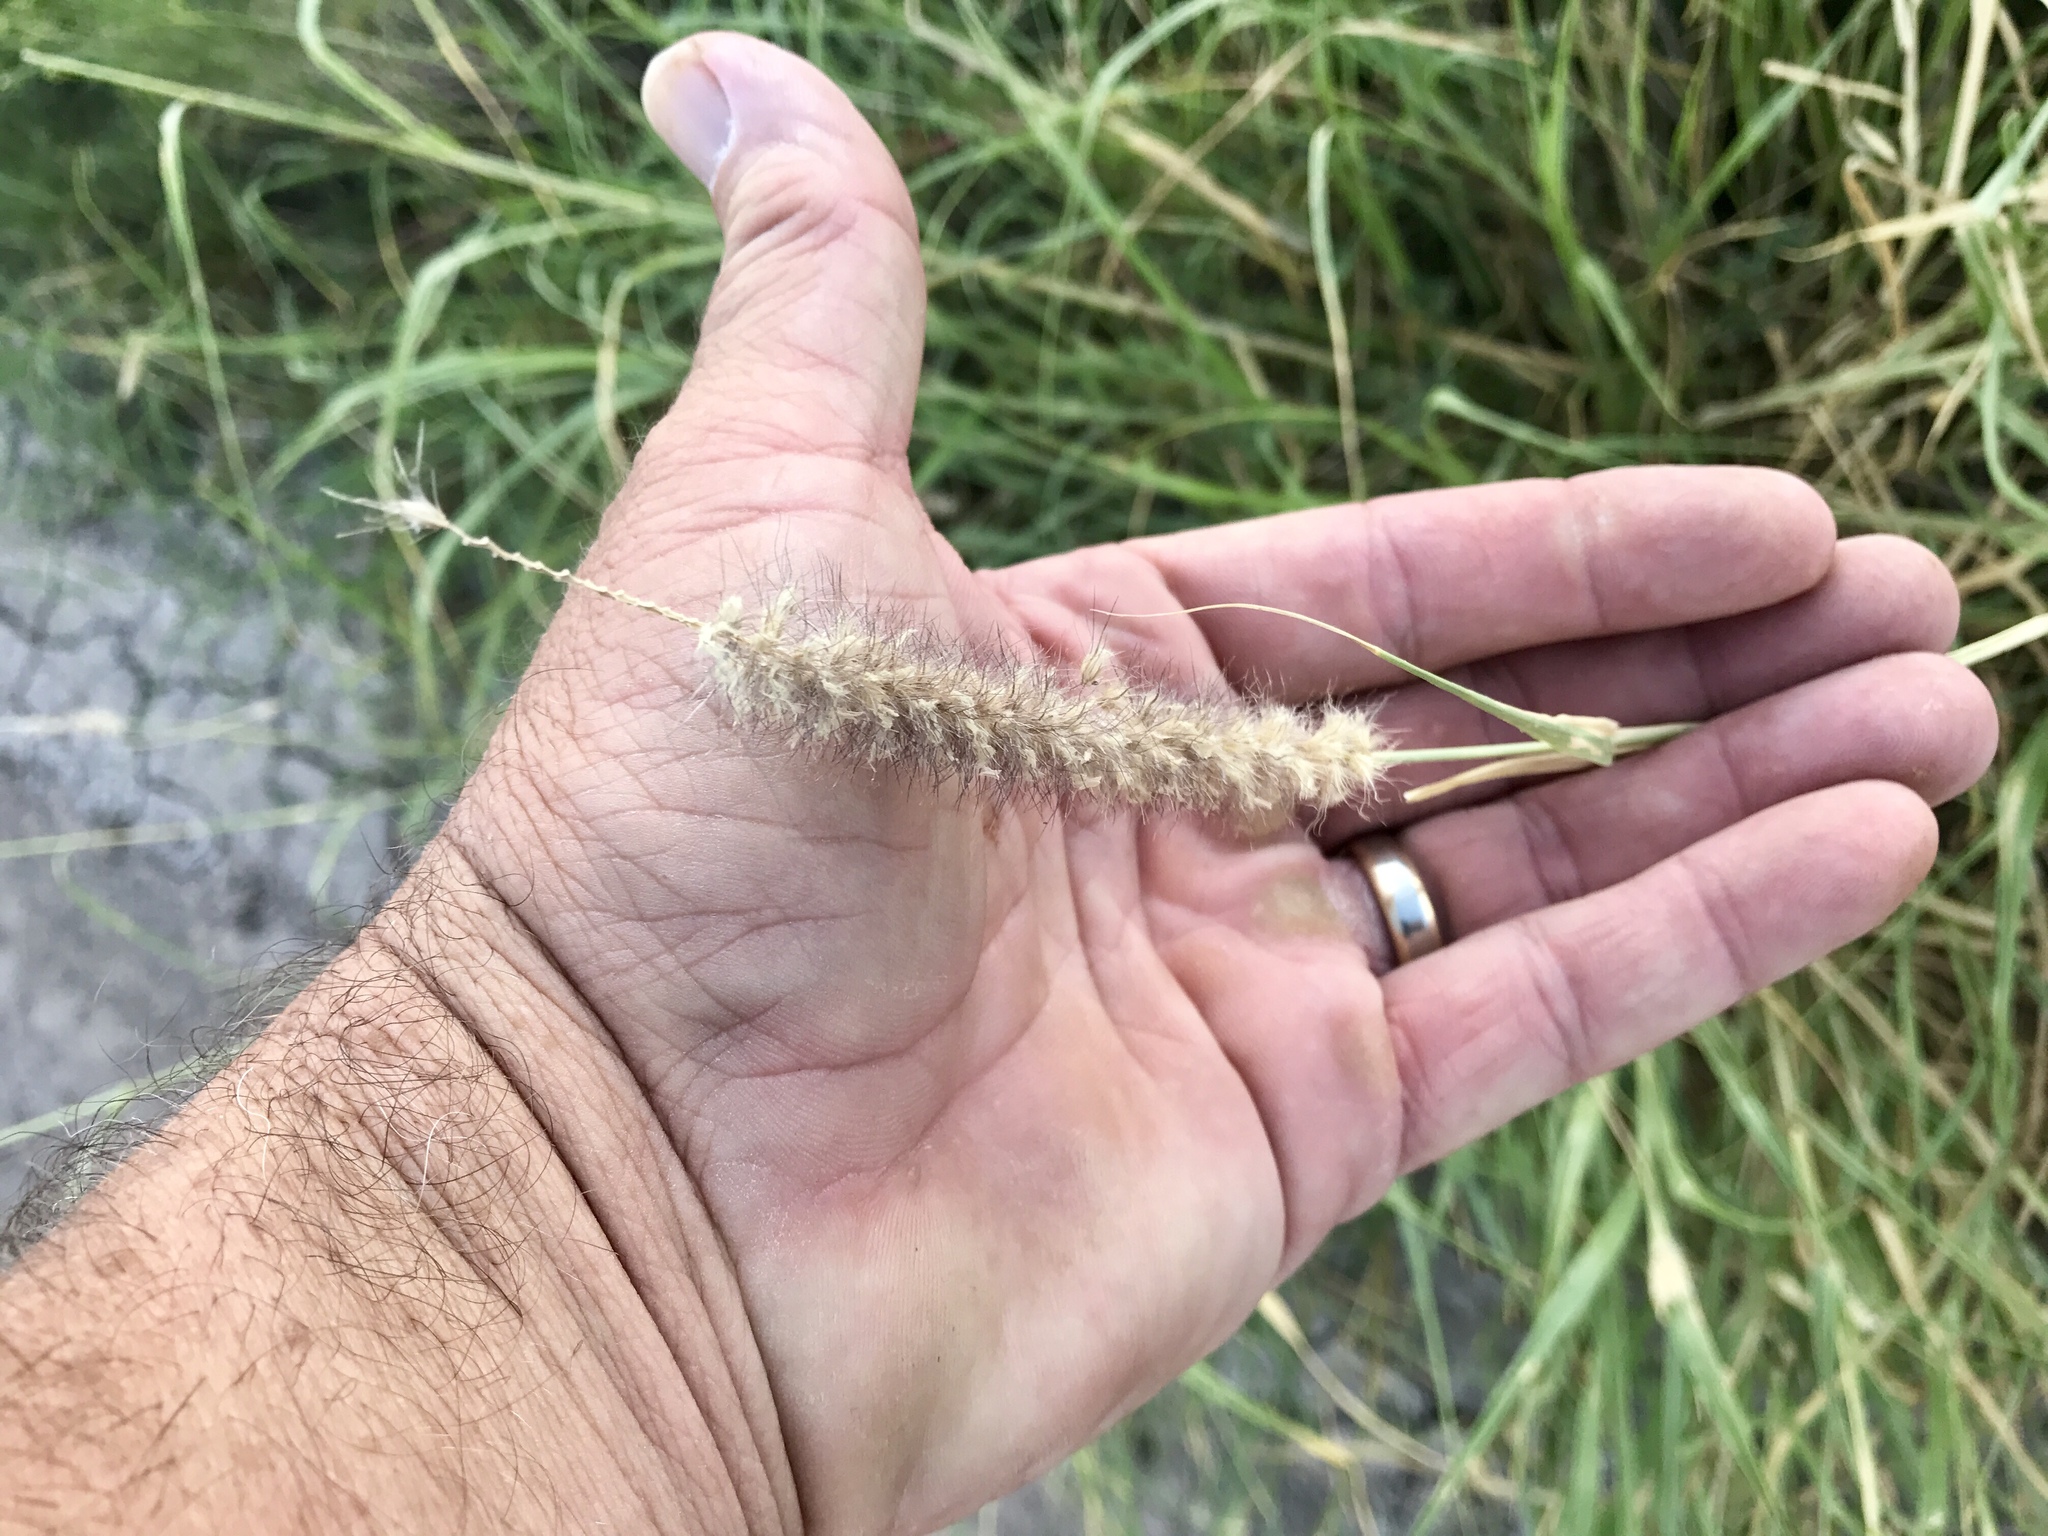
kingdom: Plantae
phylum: Tracheophyta
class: Liliopsida
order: Poales
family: Poaceae
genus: Cenchrus
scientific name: Cenchrus ciliaris
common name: Buffelgrass
